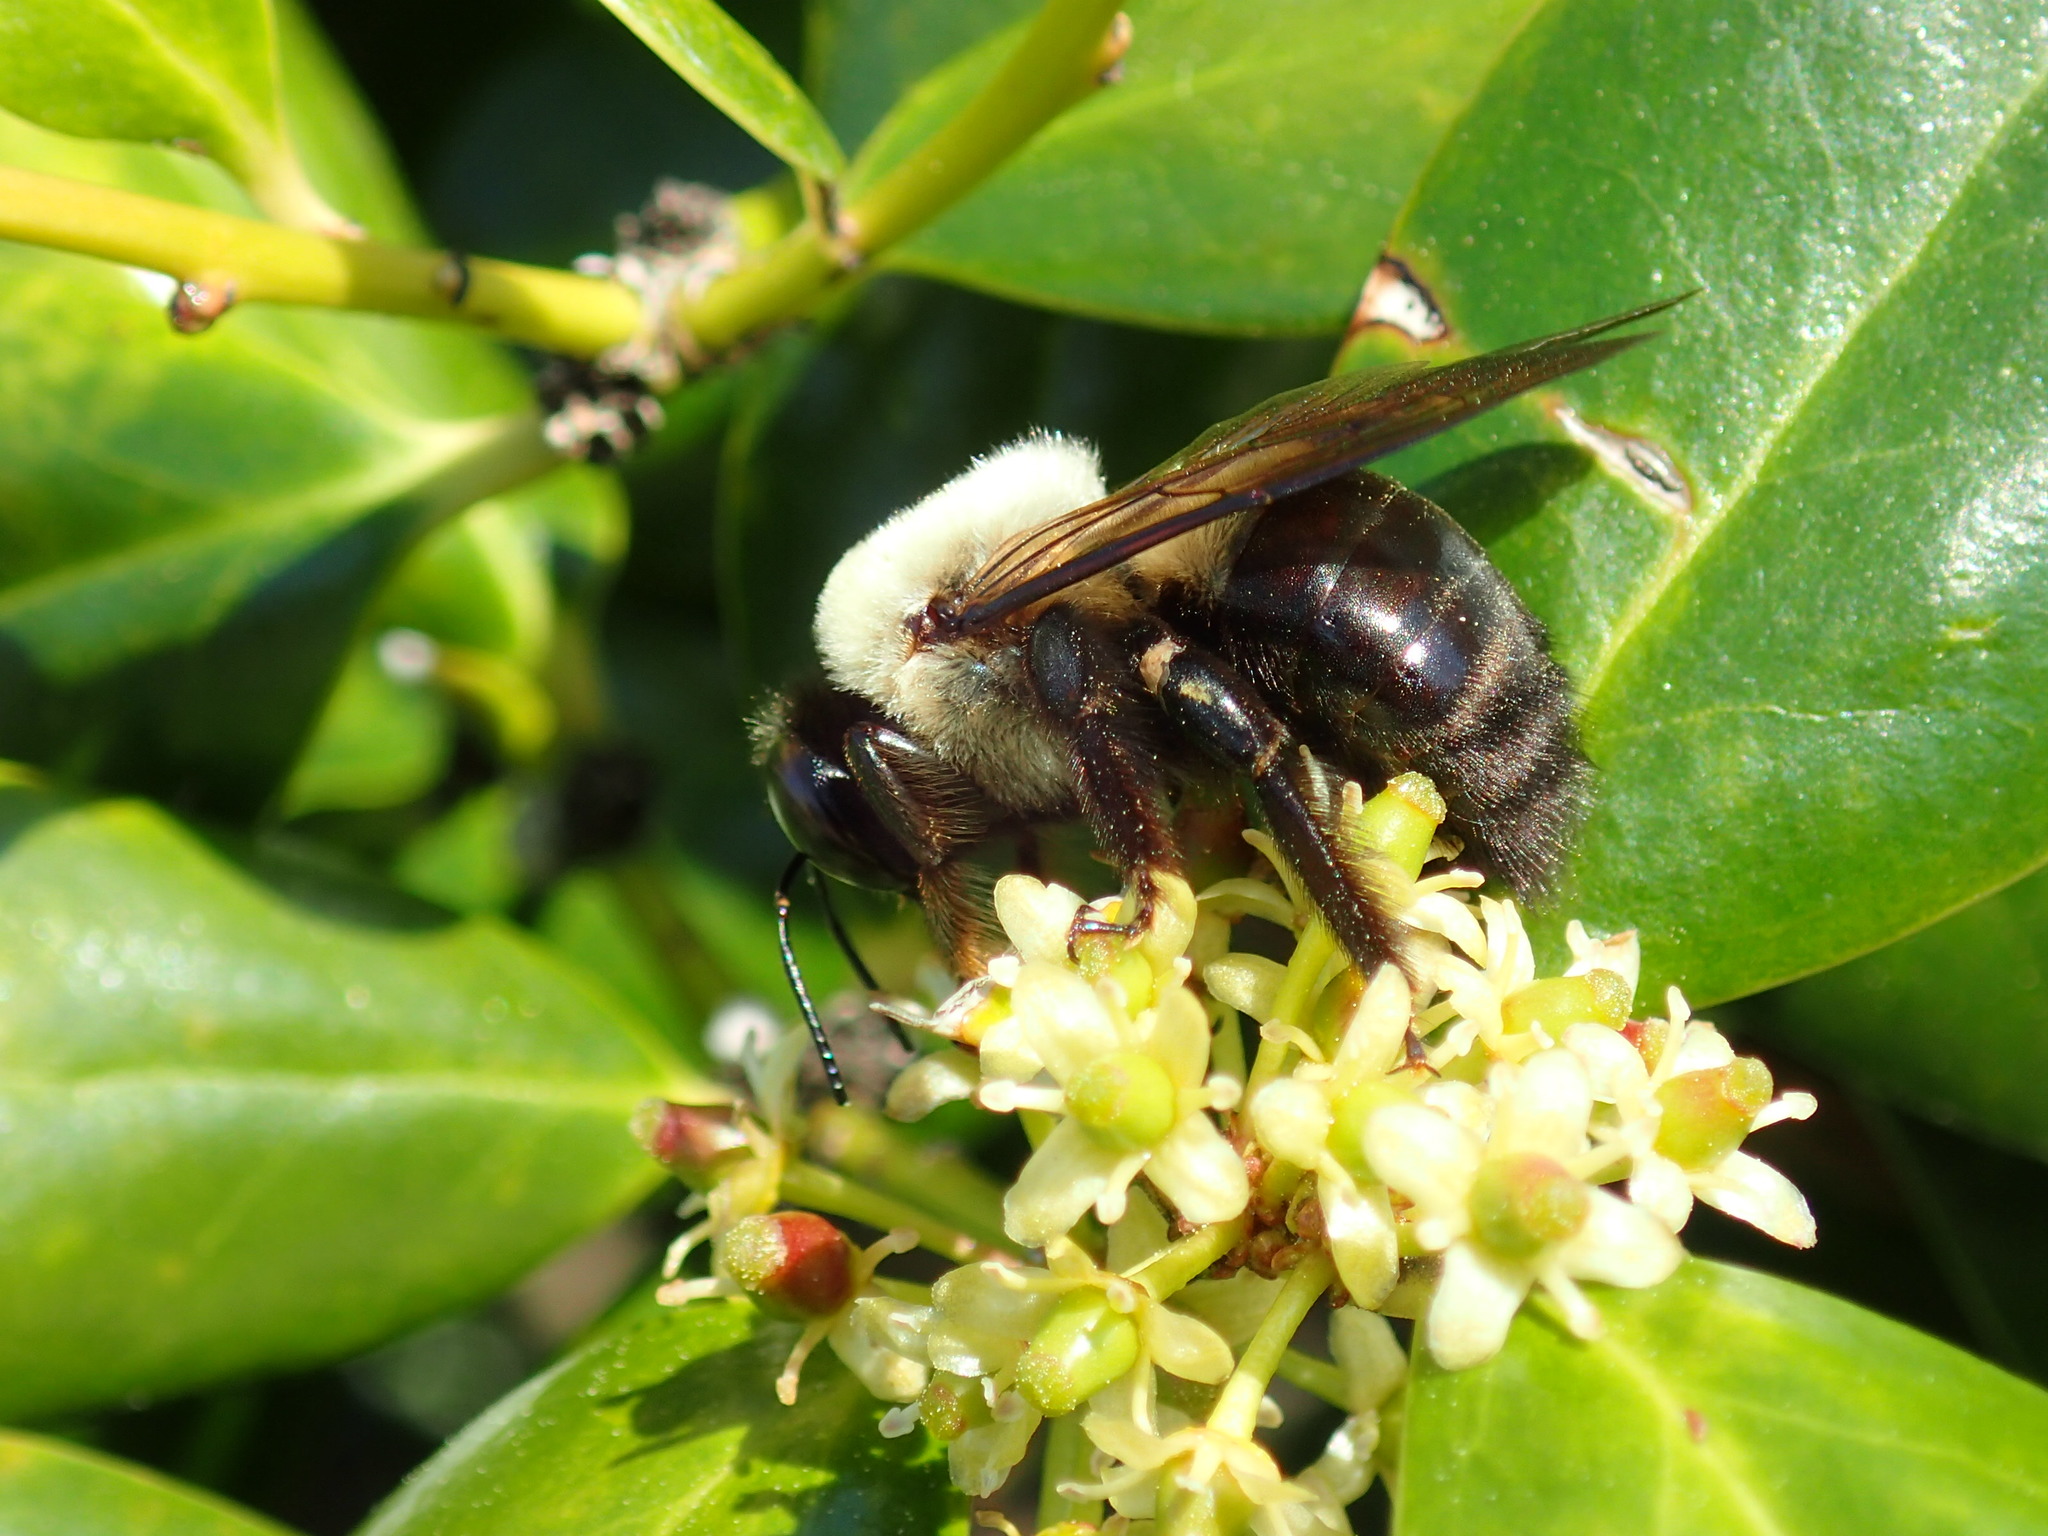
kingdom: Animalia
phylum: Arthropoda
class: Insecta
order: Hymenoptera
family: Apidae
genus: Xylocopa
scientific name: Xylocopa virginica
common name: Carpenter bee
